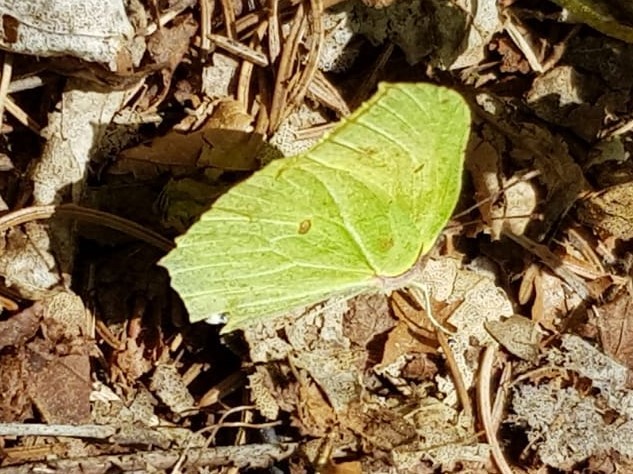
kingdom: Animalia
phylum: Arthropoda
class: Insecta
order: Lepidoptera
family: Pieridae
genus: Gonepteryx
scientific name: Gonepteryx rhamni
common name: Brimstone
